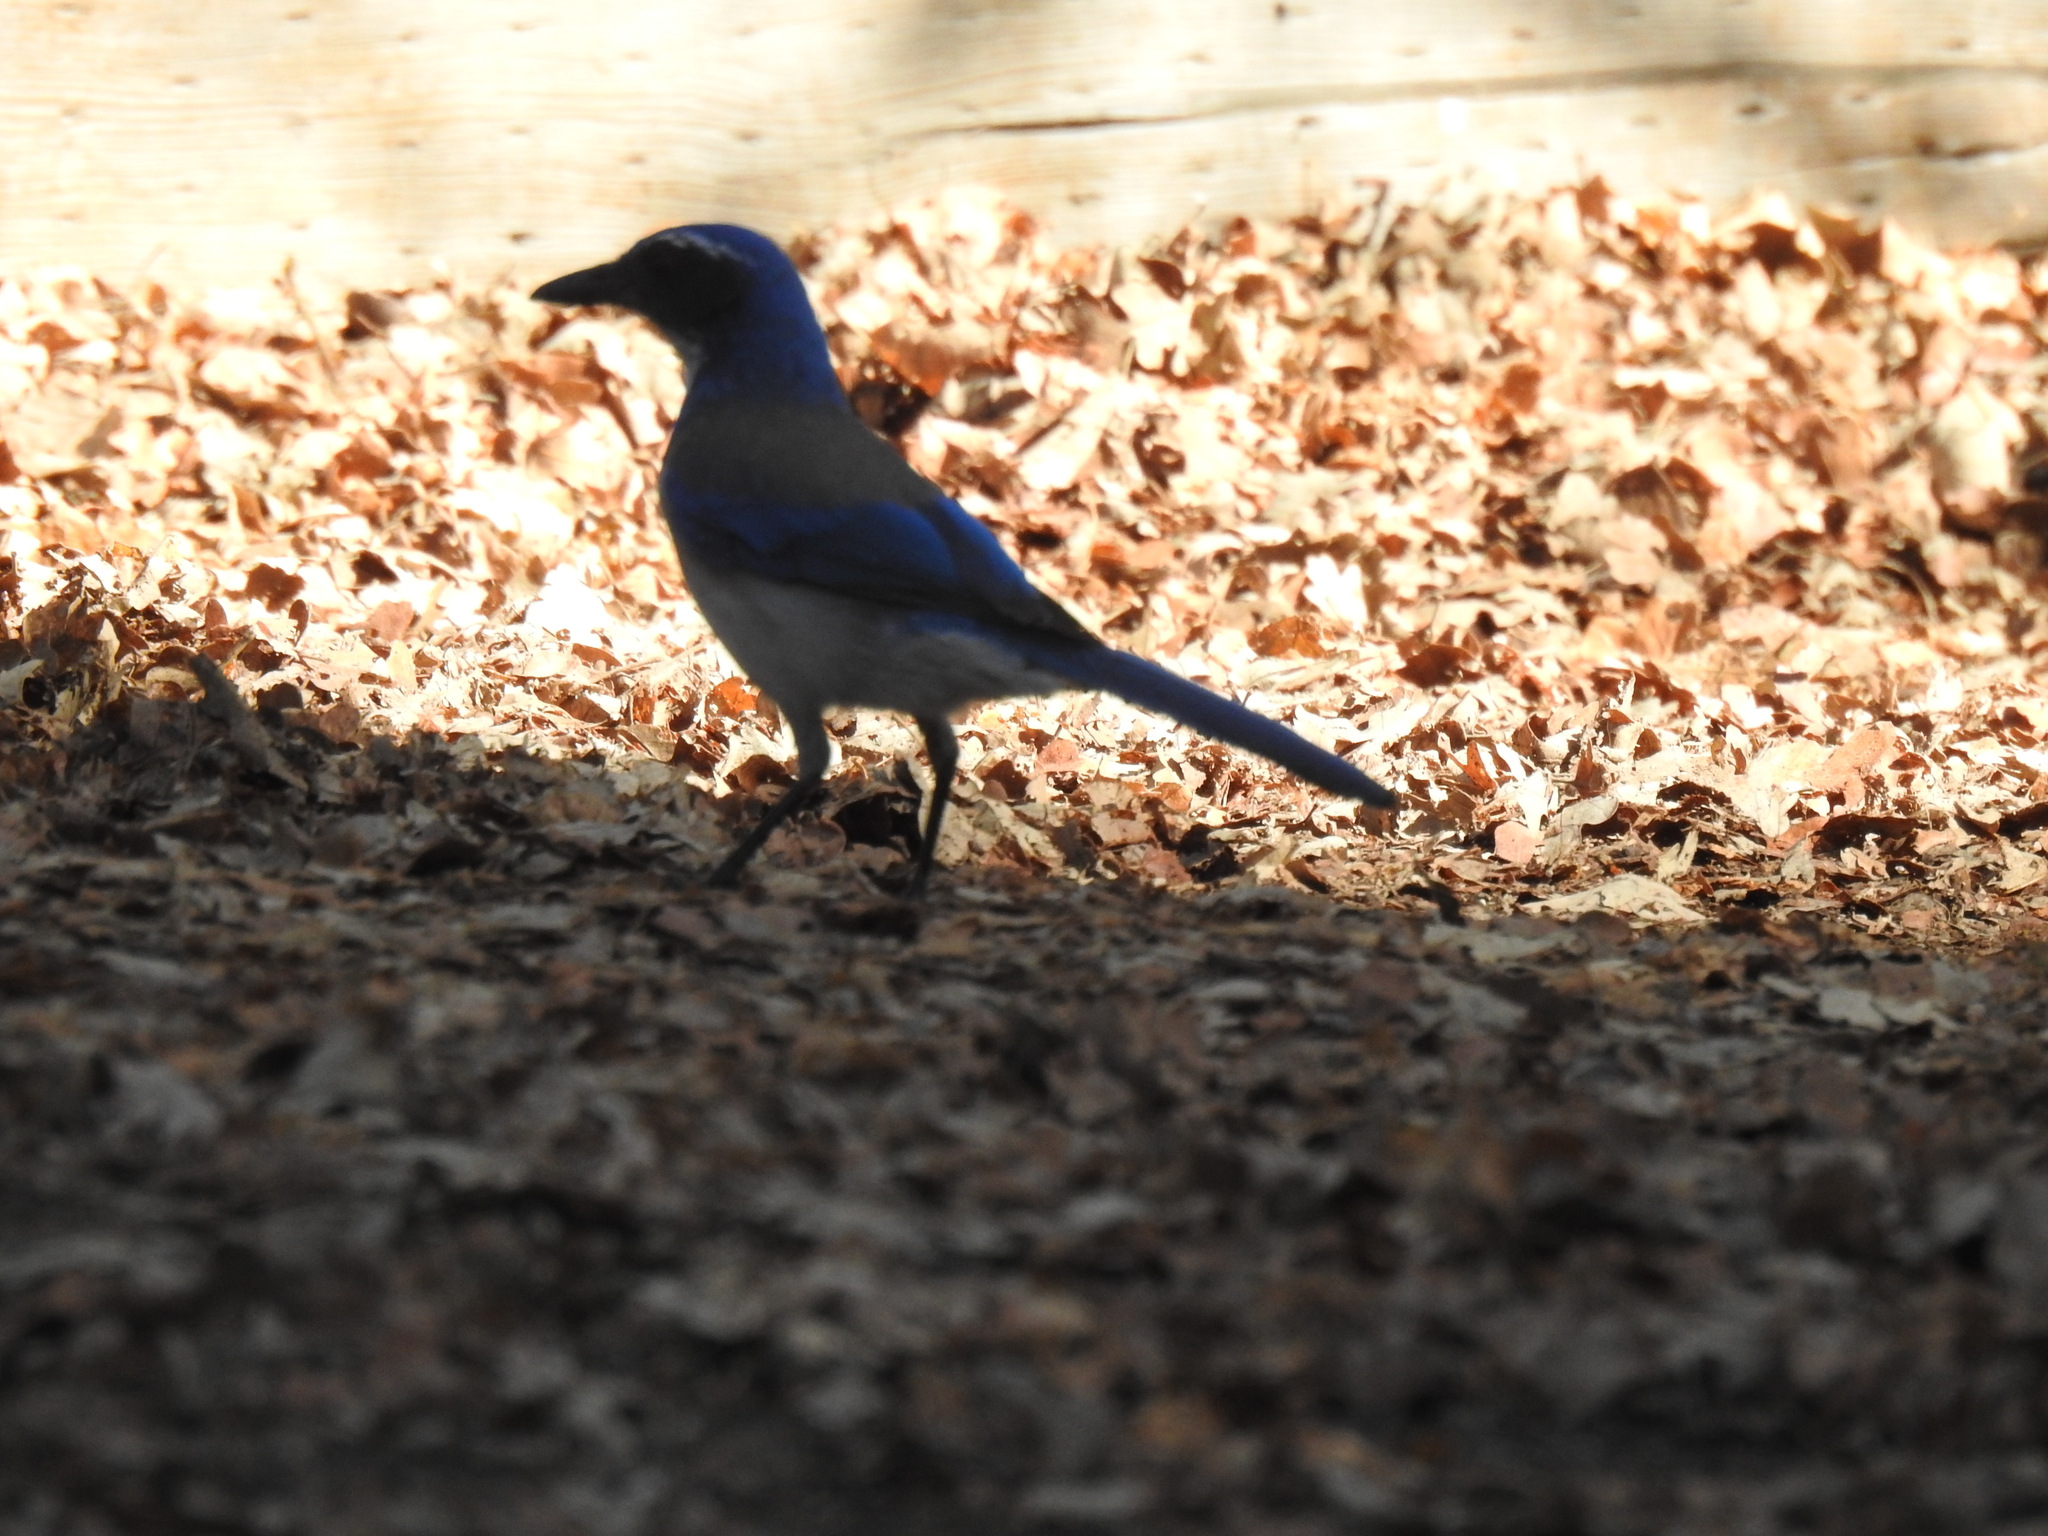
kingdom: Animalia
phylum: Chordata
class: Aves
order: Passeriformes
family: Corvidae
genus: Aphelocoma
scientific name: Aphelocoma californica
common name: California scrub-jay
